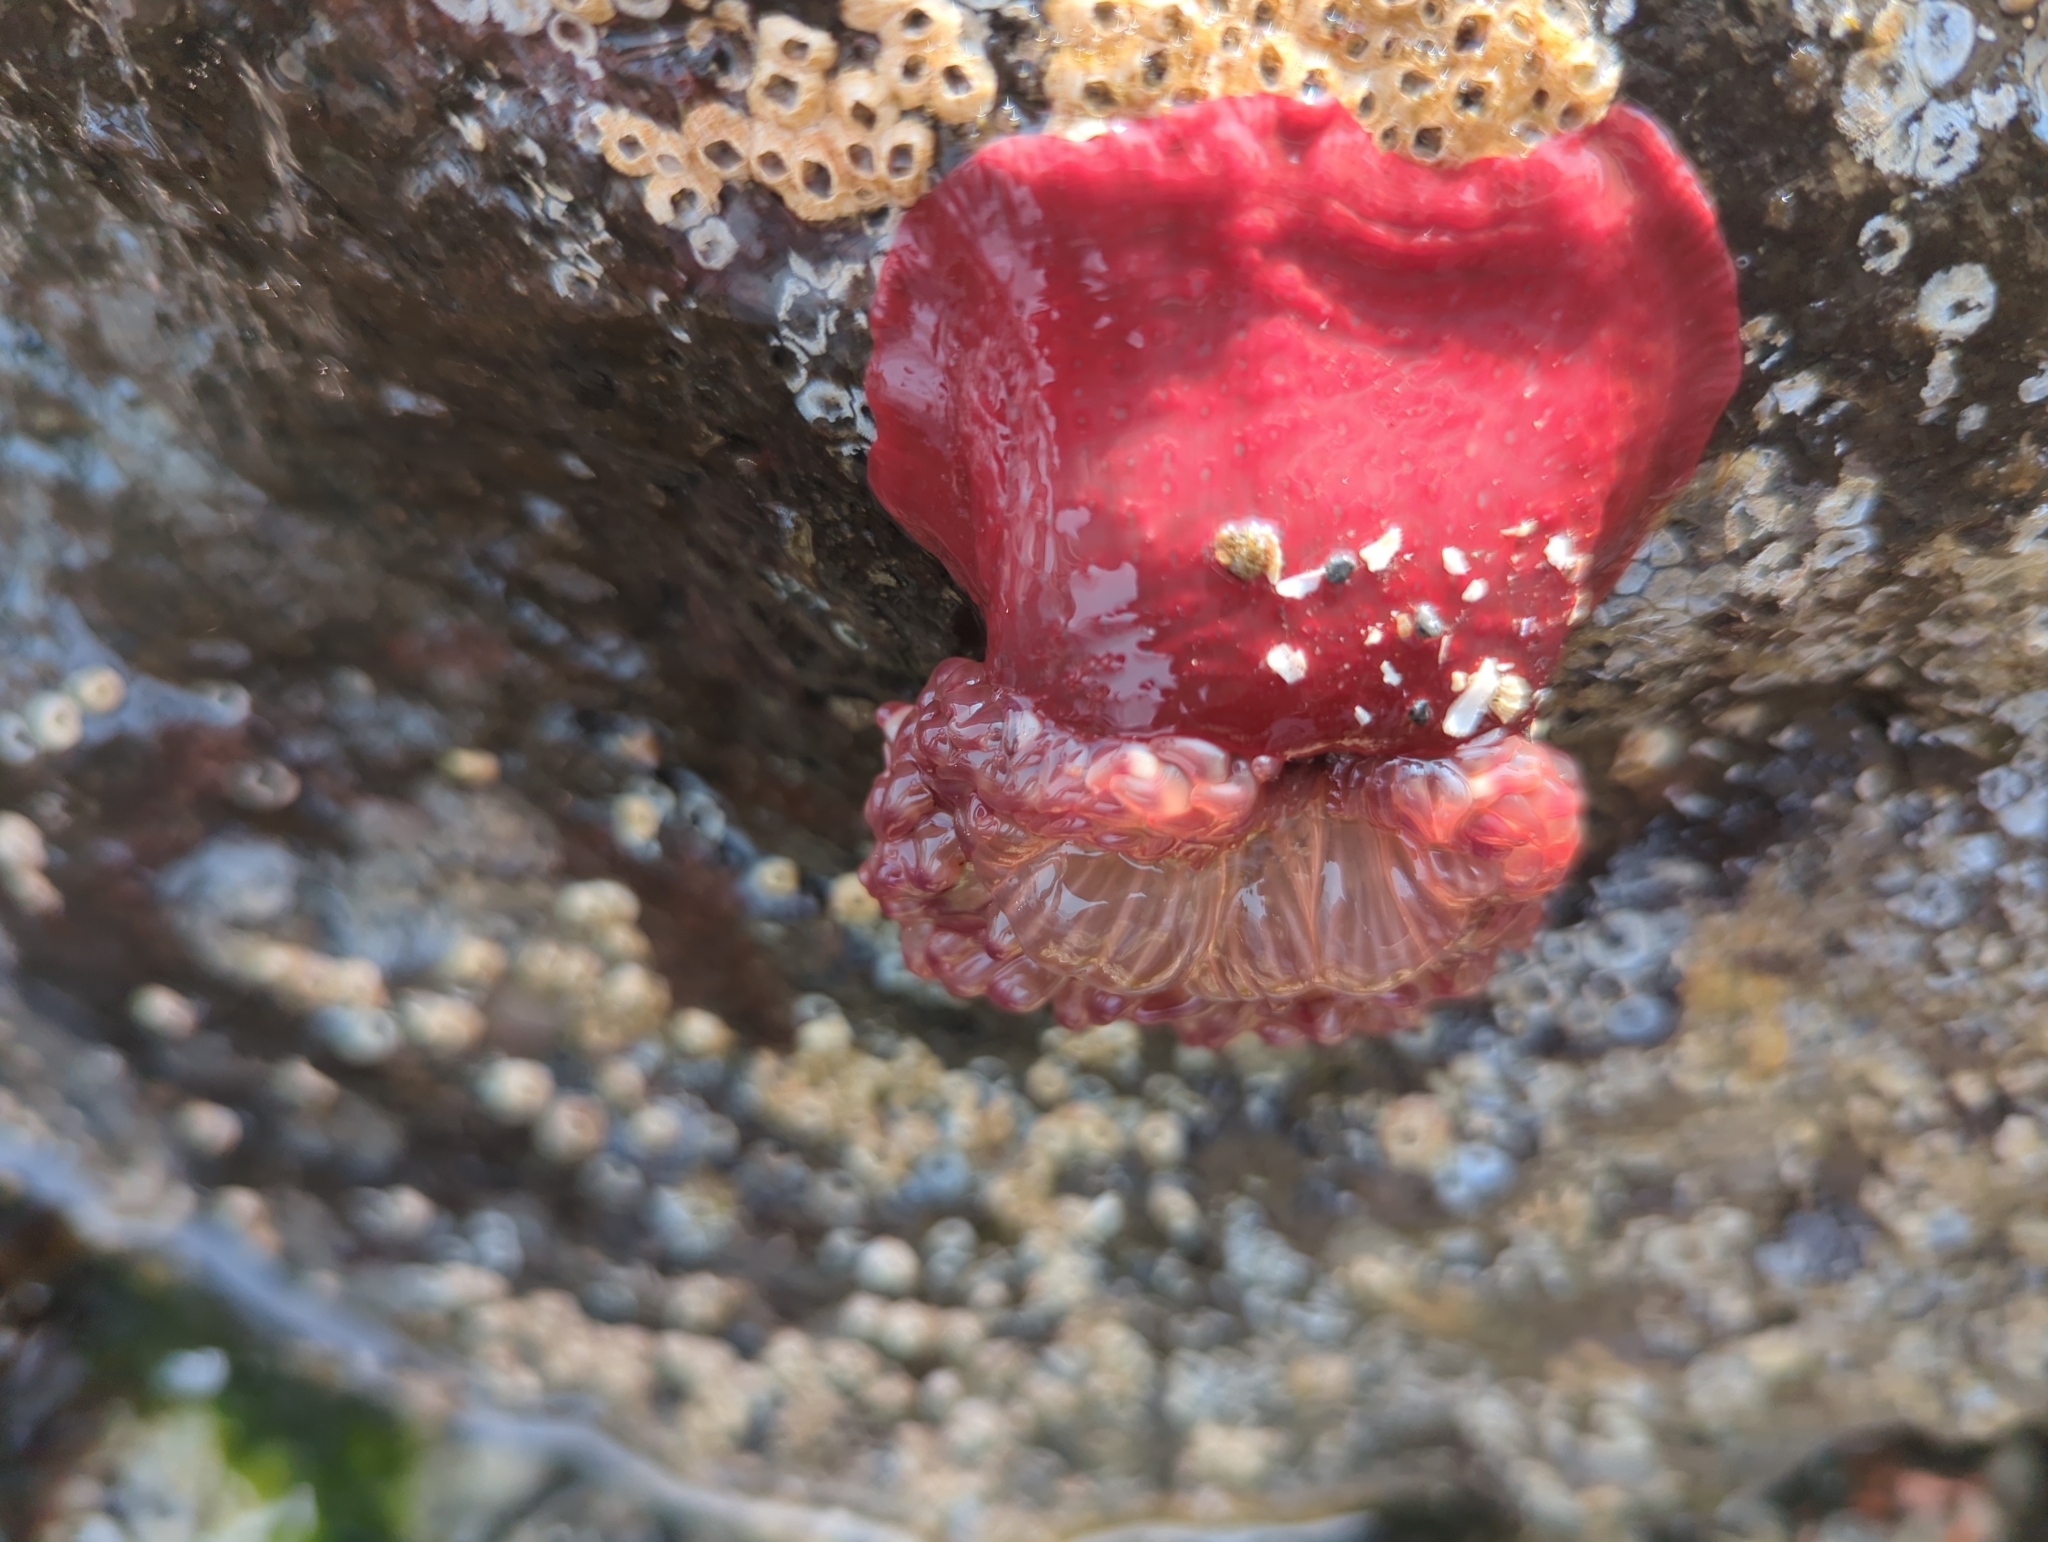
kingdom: Animalia
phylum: Cnidaria
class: Anthozoa
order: Actiniaria
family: Actiniidae
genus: Urticina
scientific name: Urticina grebelnyi
